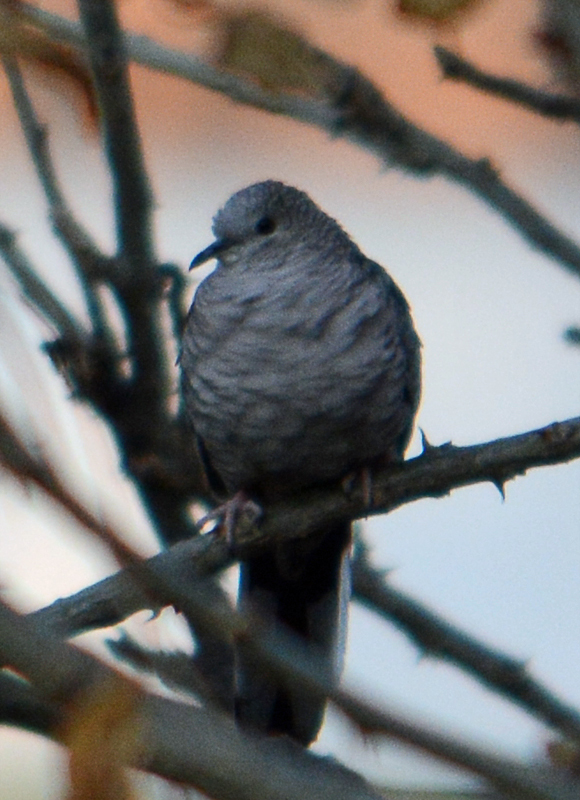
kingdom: Animalia
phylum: Chordata
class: Aves
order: Columbiformes
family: Columbidae
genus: Columbina
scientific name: Columbina inca
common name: Inca dove
